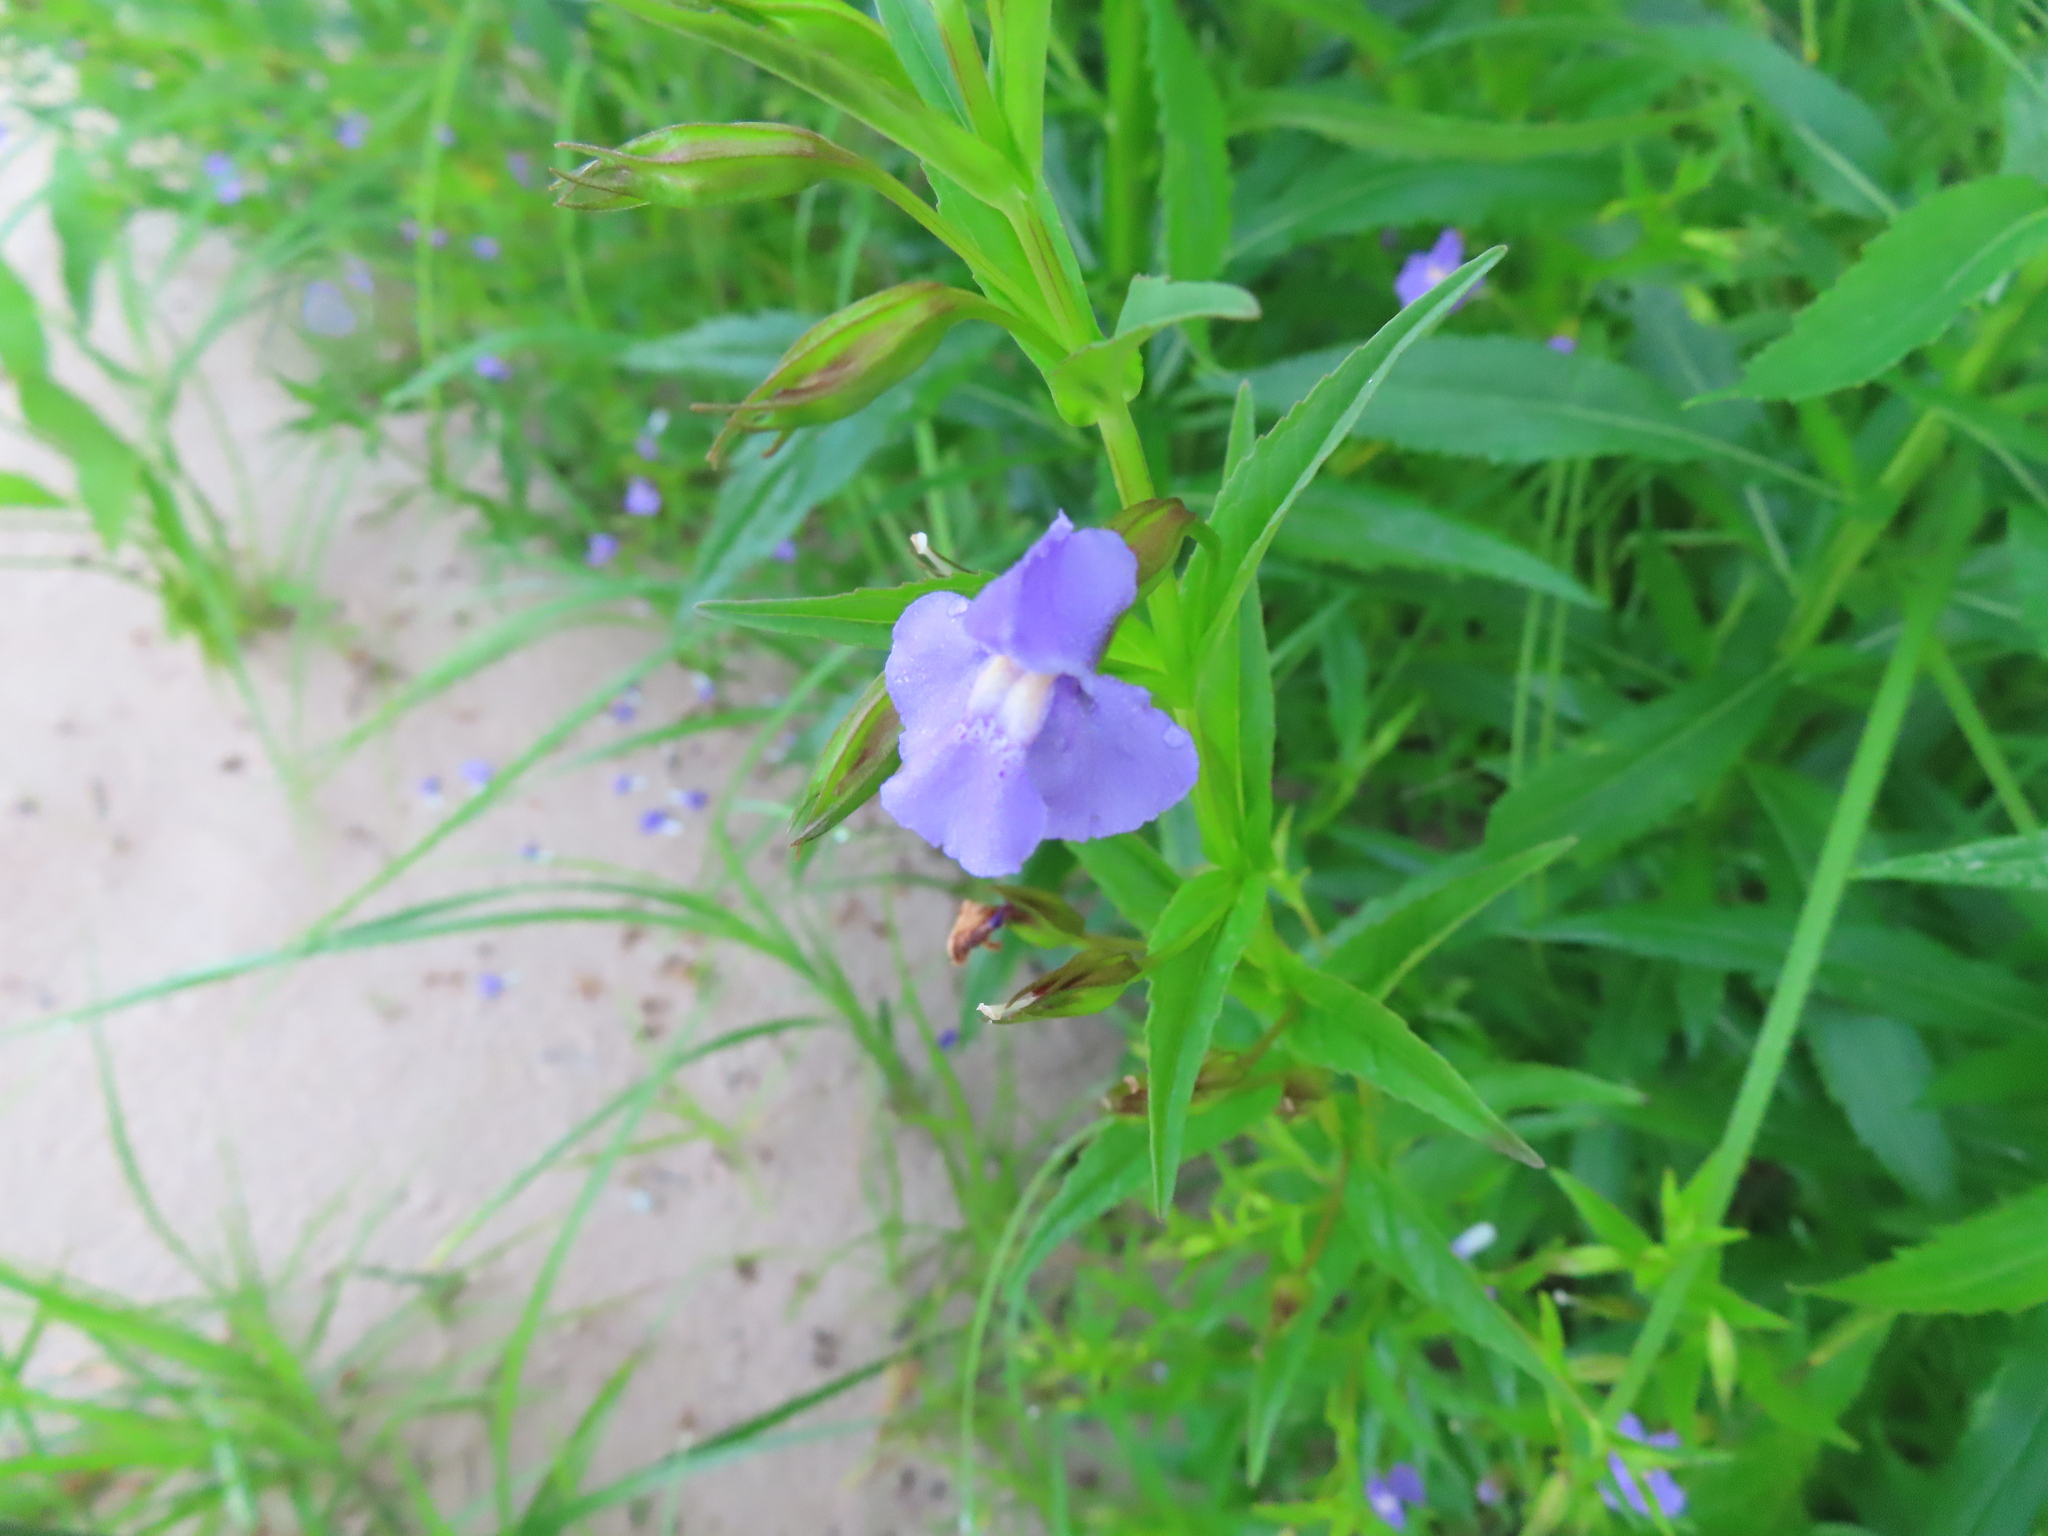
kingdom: Plantae
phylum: Tracheophyta
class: Magnoliopsida
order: Lamiales
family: Phrymaceae
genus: Mimulus
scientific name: Mimulus ringens
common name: Allegheny monkeyflower
